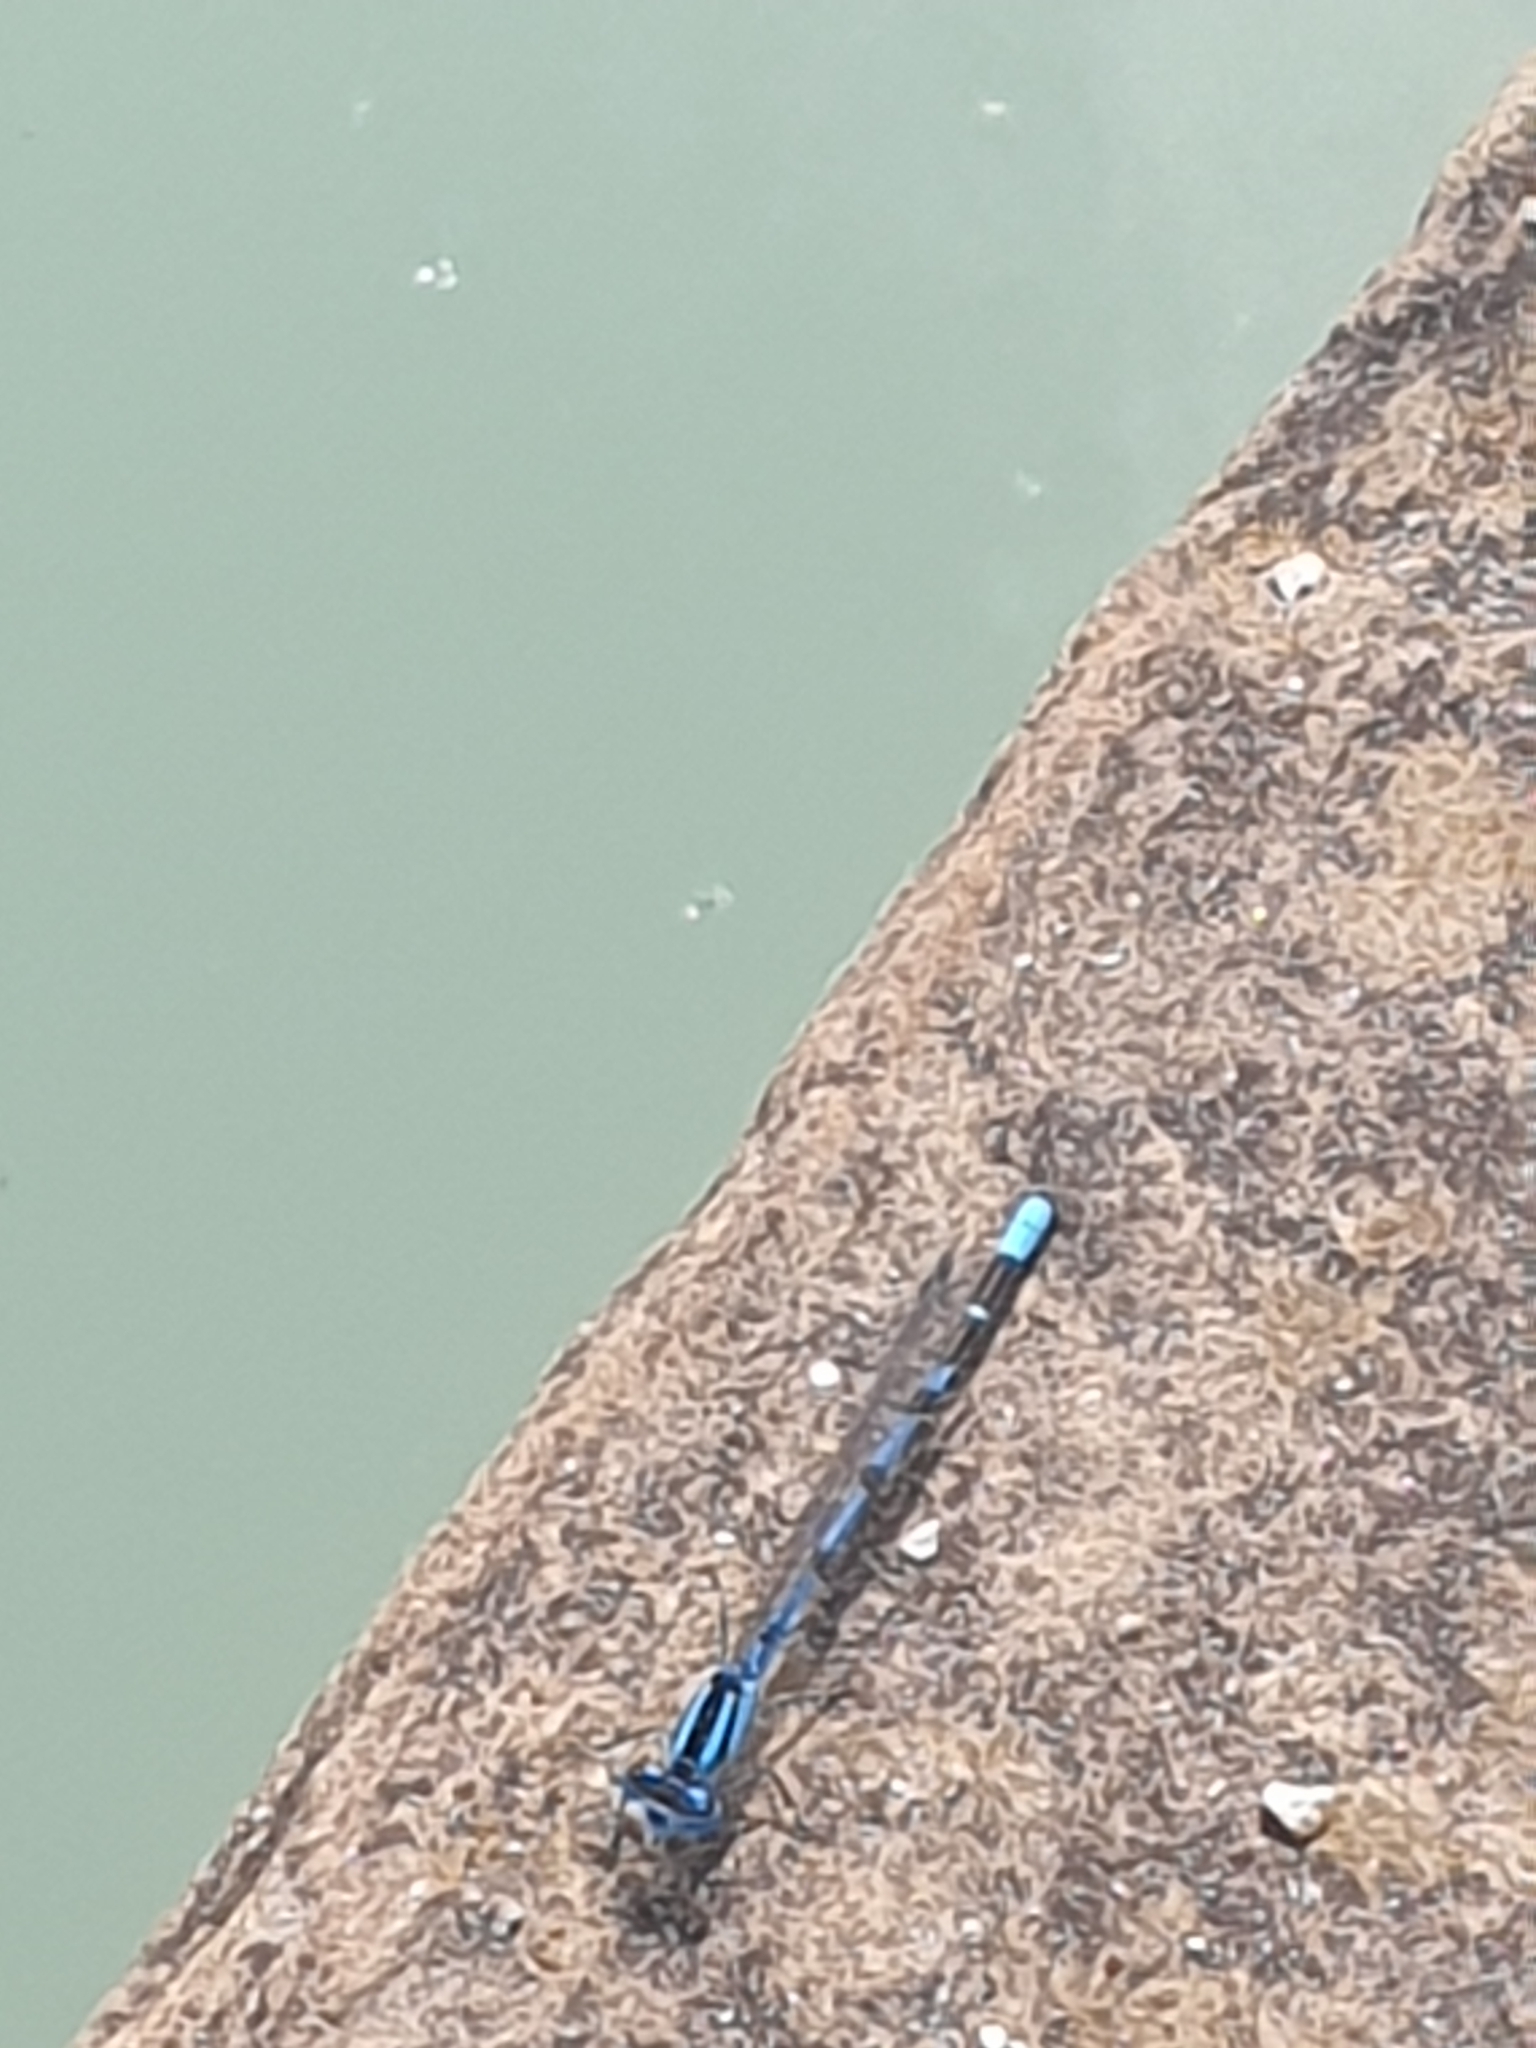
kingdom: Animalia
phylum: Arthropoda
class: Insecta
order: Odonata
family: Coenagrionidae
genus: Enallagma
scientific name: Enallagma cyathigerum
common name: Common blue damselfly
